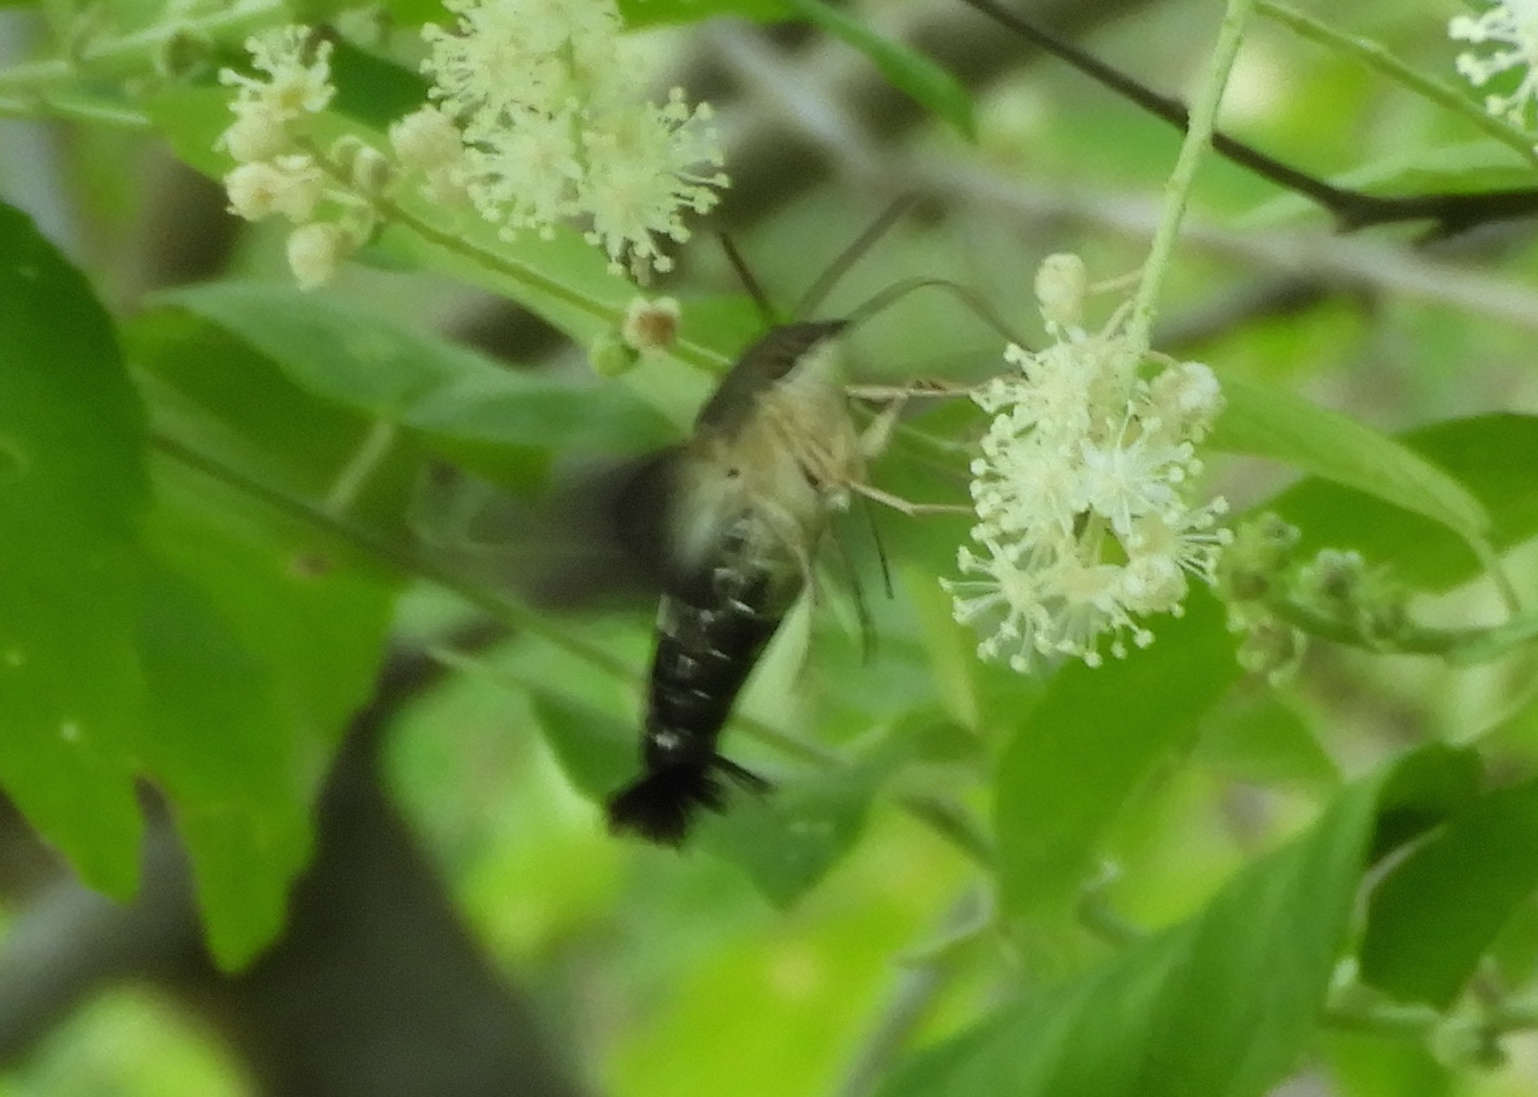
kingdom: Animalia
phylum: Arthropoda
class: Insecta
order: Lepidoptera
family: Sphingidae
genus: Aellopos
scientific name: Aellopos clavipes
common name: Clavipes sphinx
